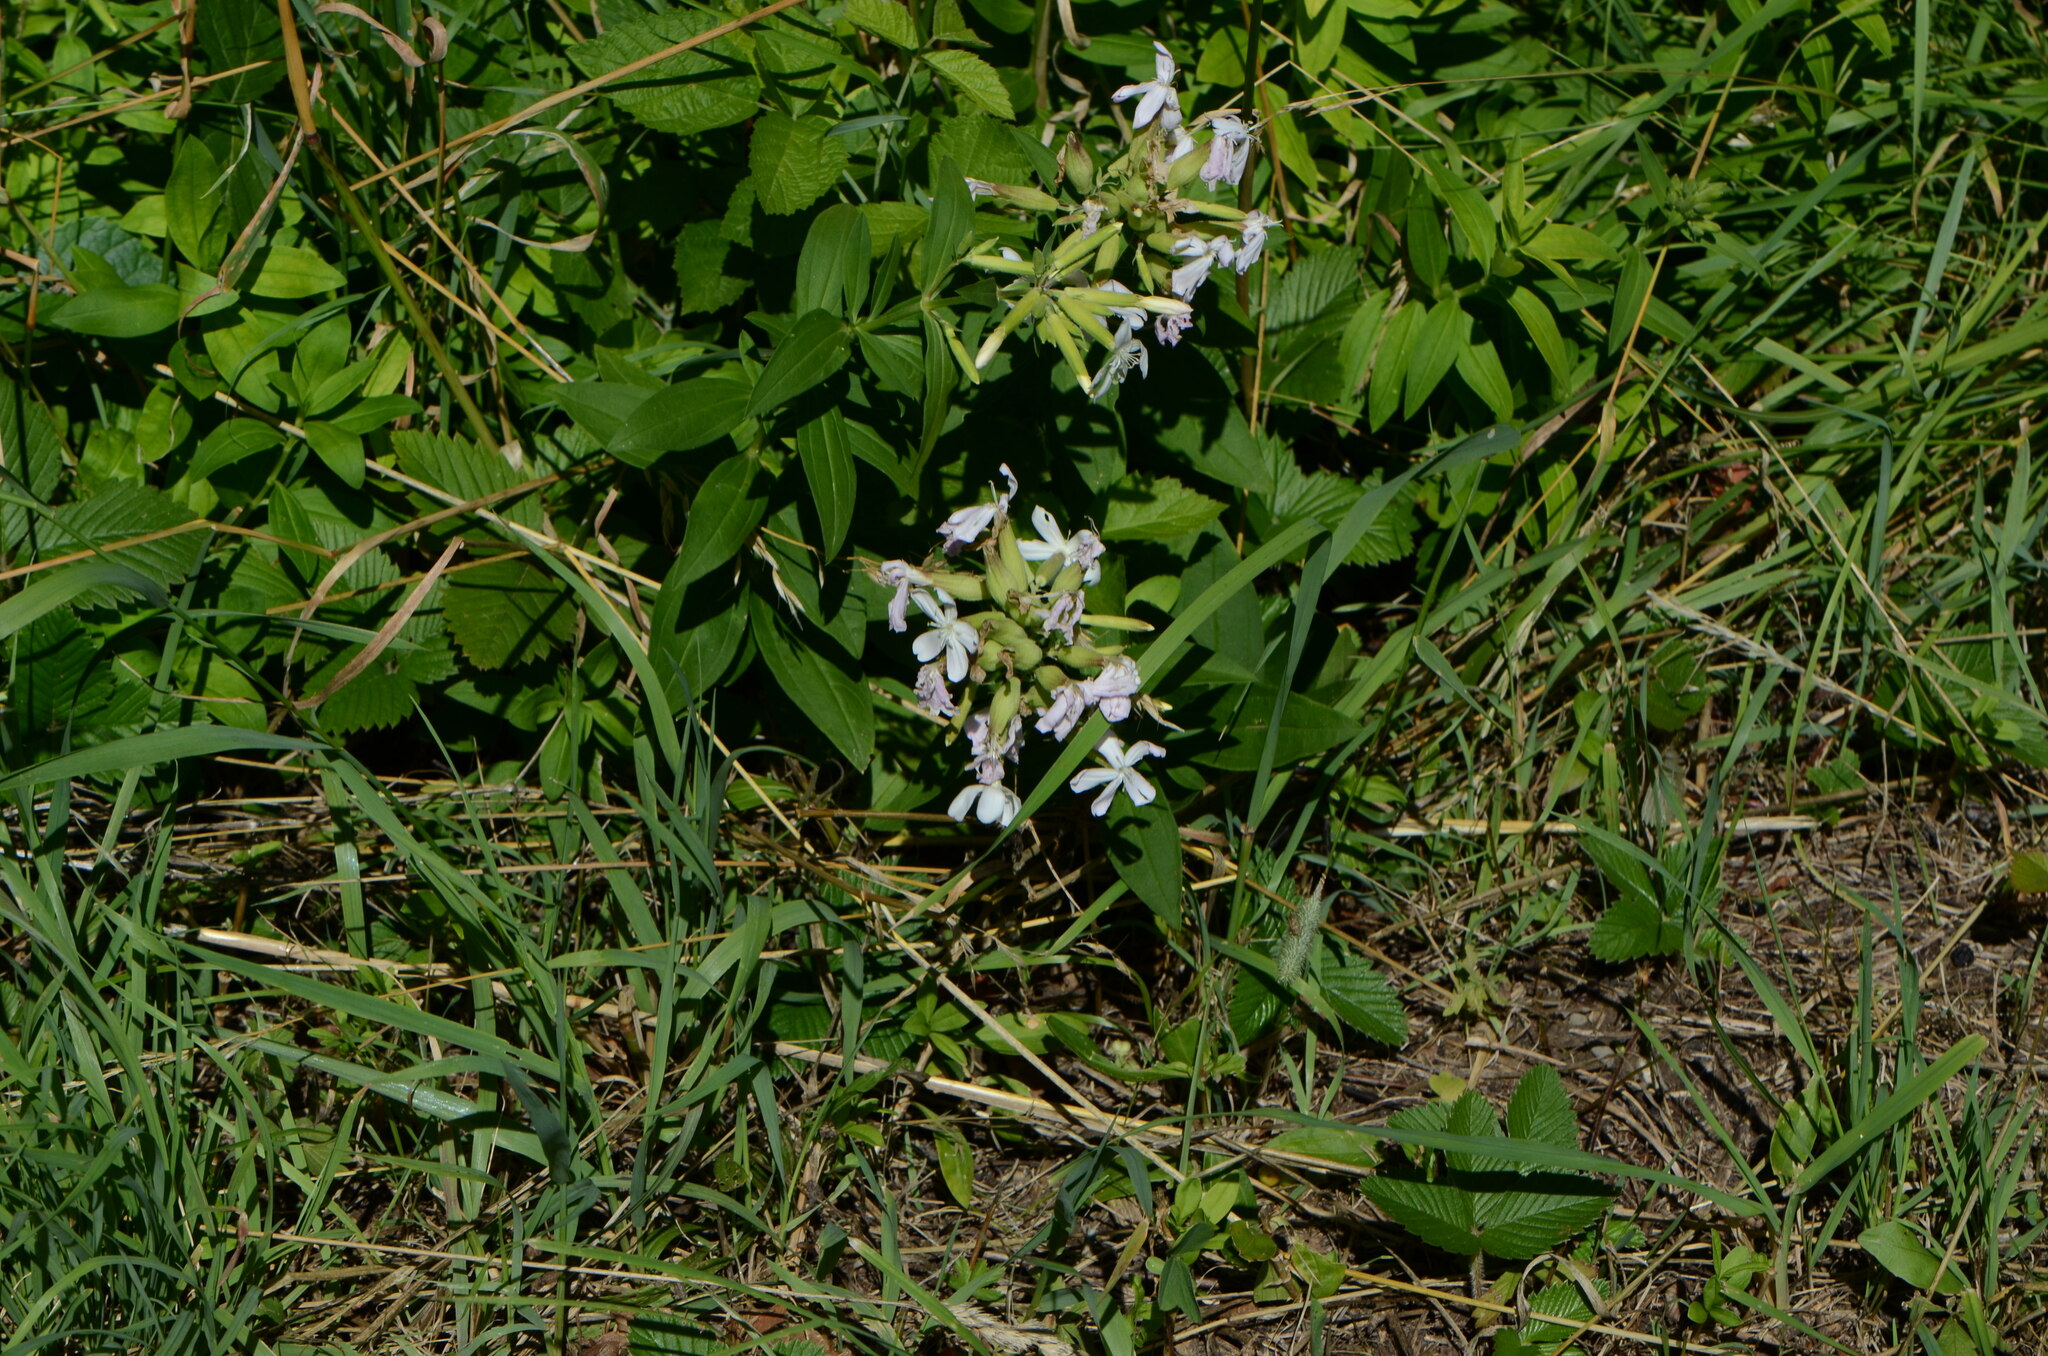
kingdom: Plantae
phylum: Tracheophyta
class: Magnoliopsida
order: Caryophyllales
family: Caryophyllaceae
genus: Saponaria
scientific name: Saponaria officinalis
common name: Soapwort
